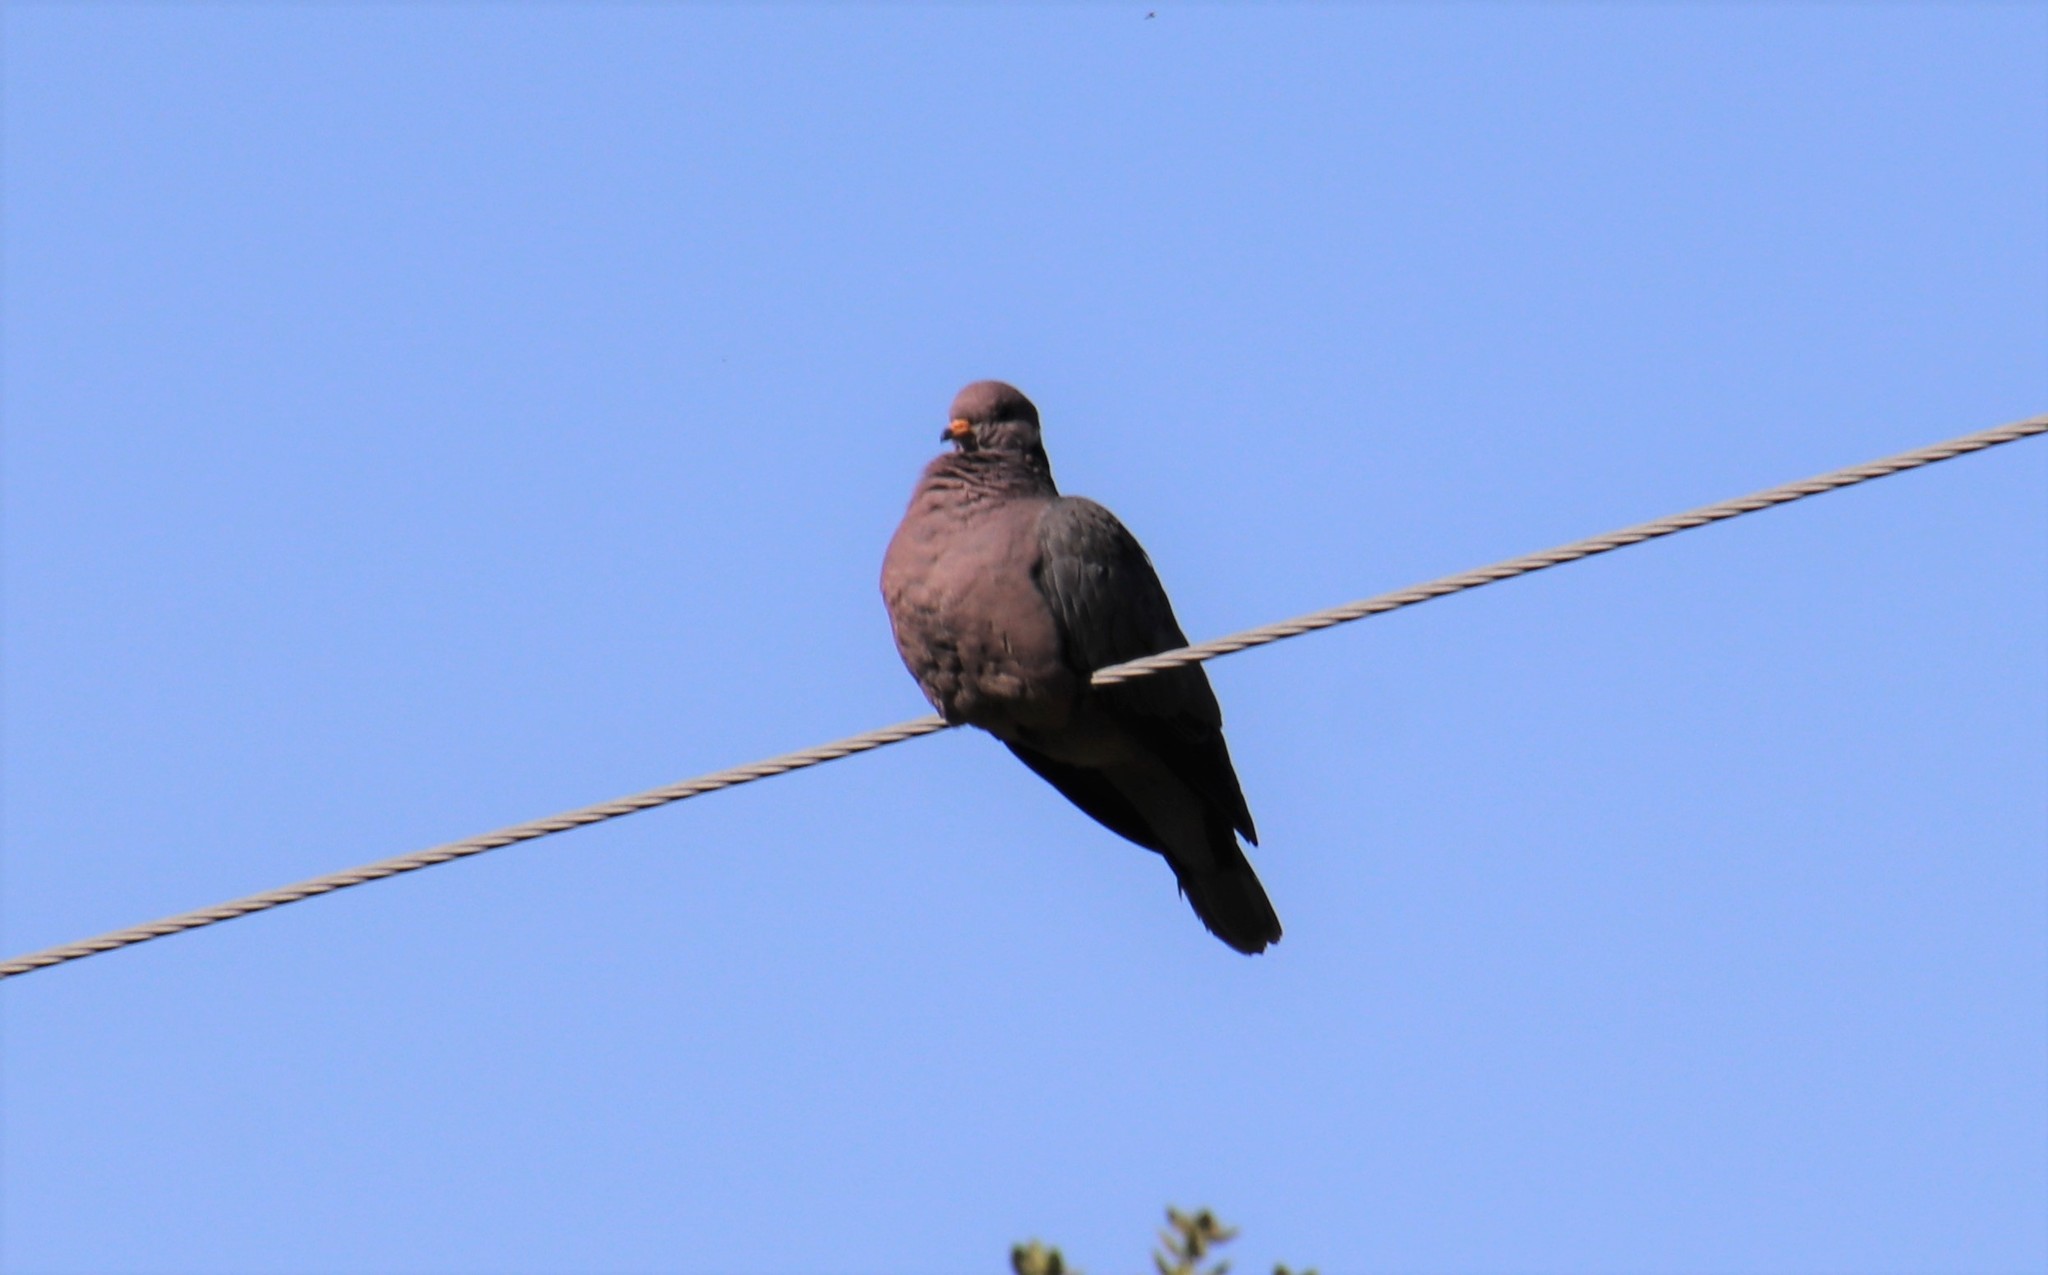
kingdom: Animalia
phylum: Chordata
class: Aves
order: Columbiformes
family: Columbidae
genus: Patagioenas
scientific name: Patagioenas fasciata
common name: Band-tailed pigeon
